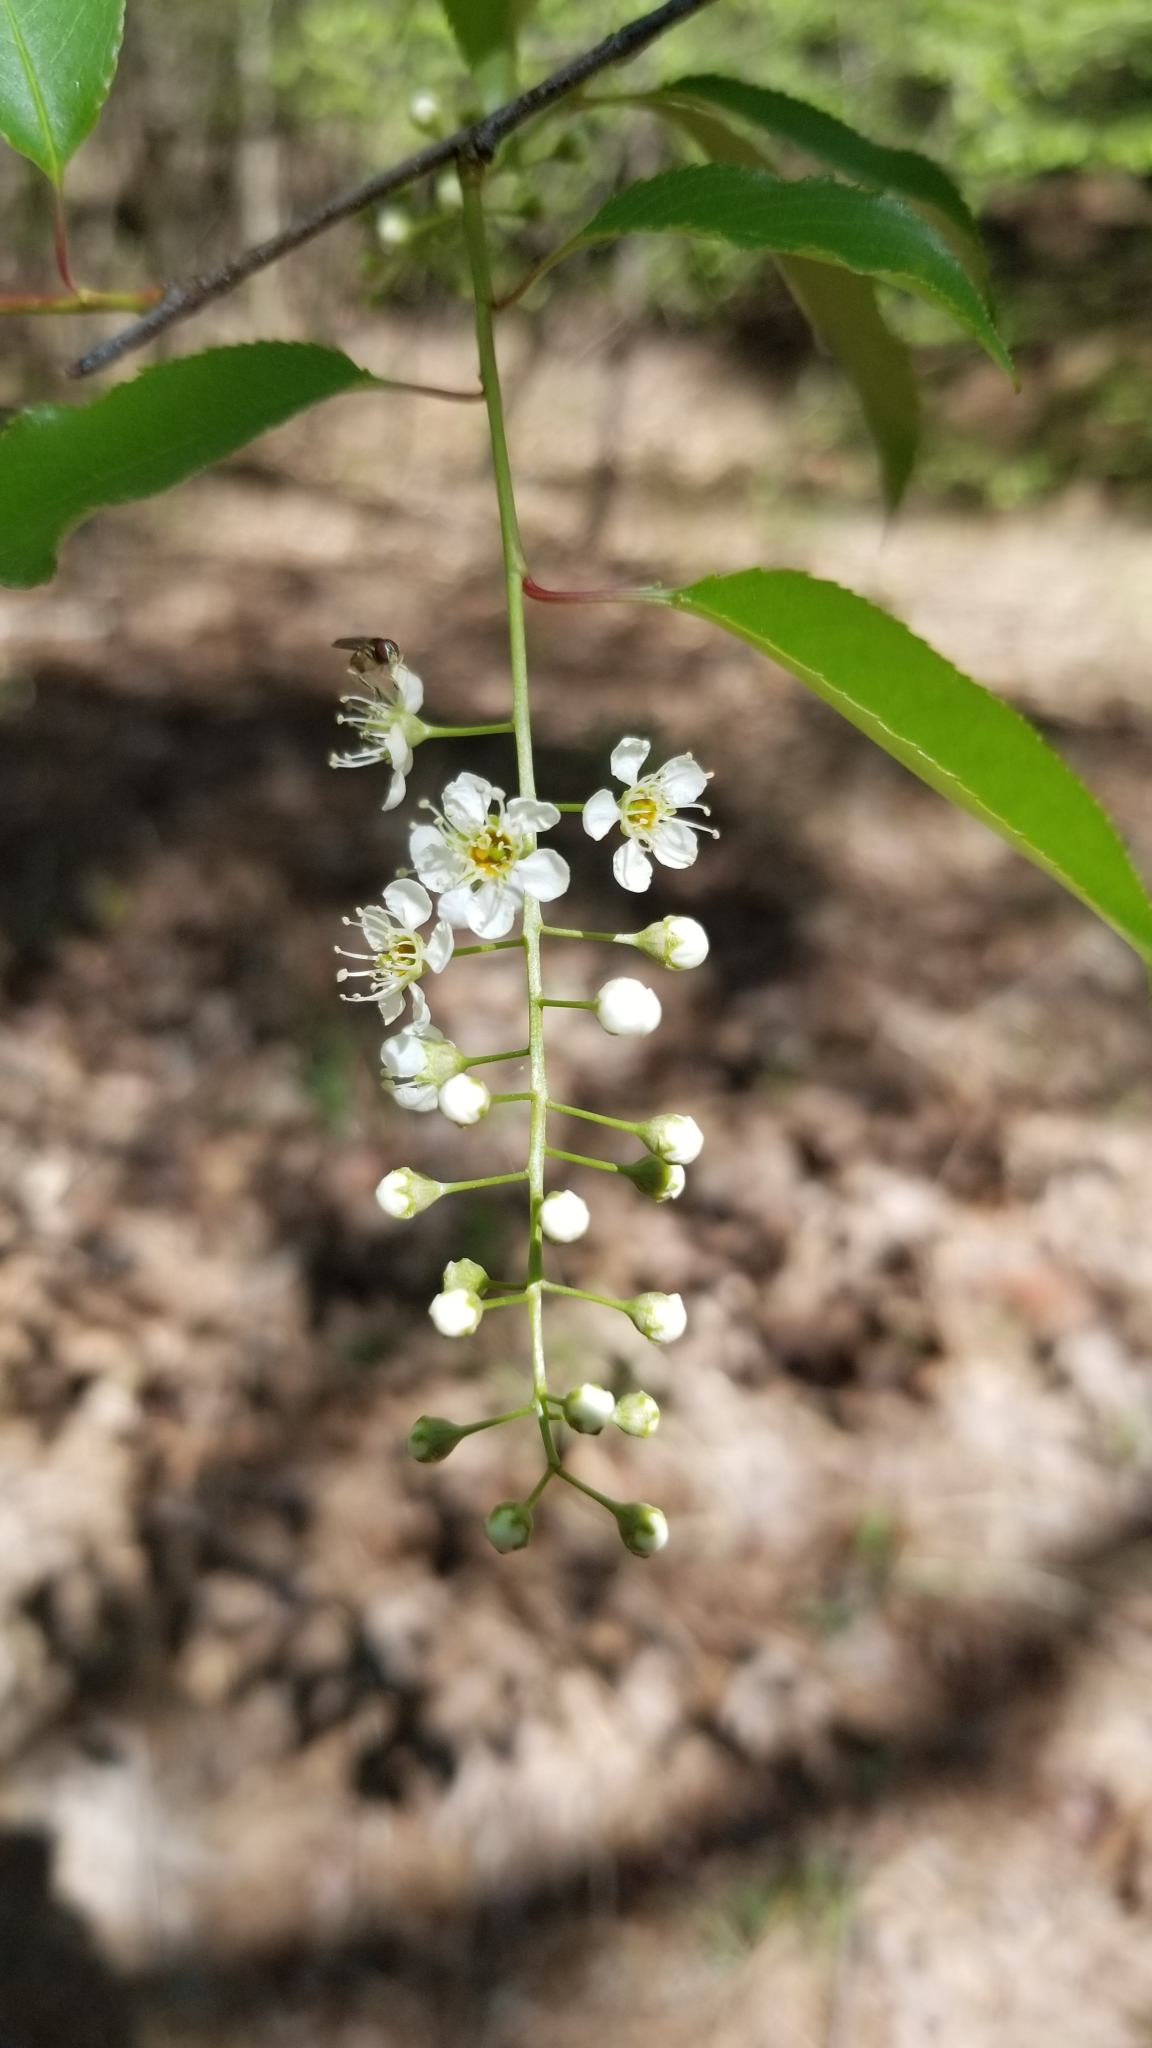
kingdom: Plantae
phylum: Tracheophyta
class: Magnoliopsida
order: Rosales
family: Rosaceae
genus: Prunus
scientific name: Prunus serotina
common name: Black cherry
